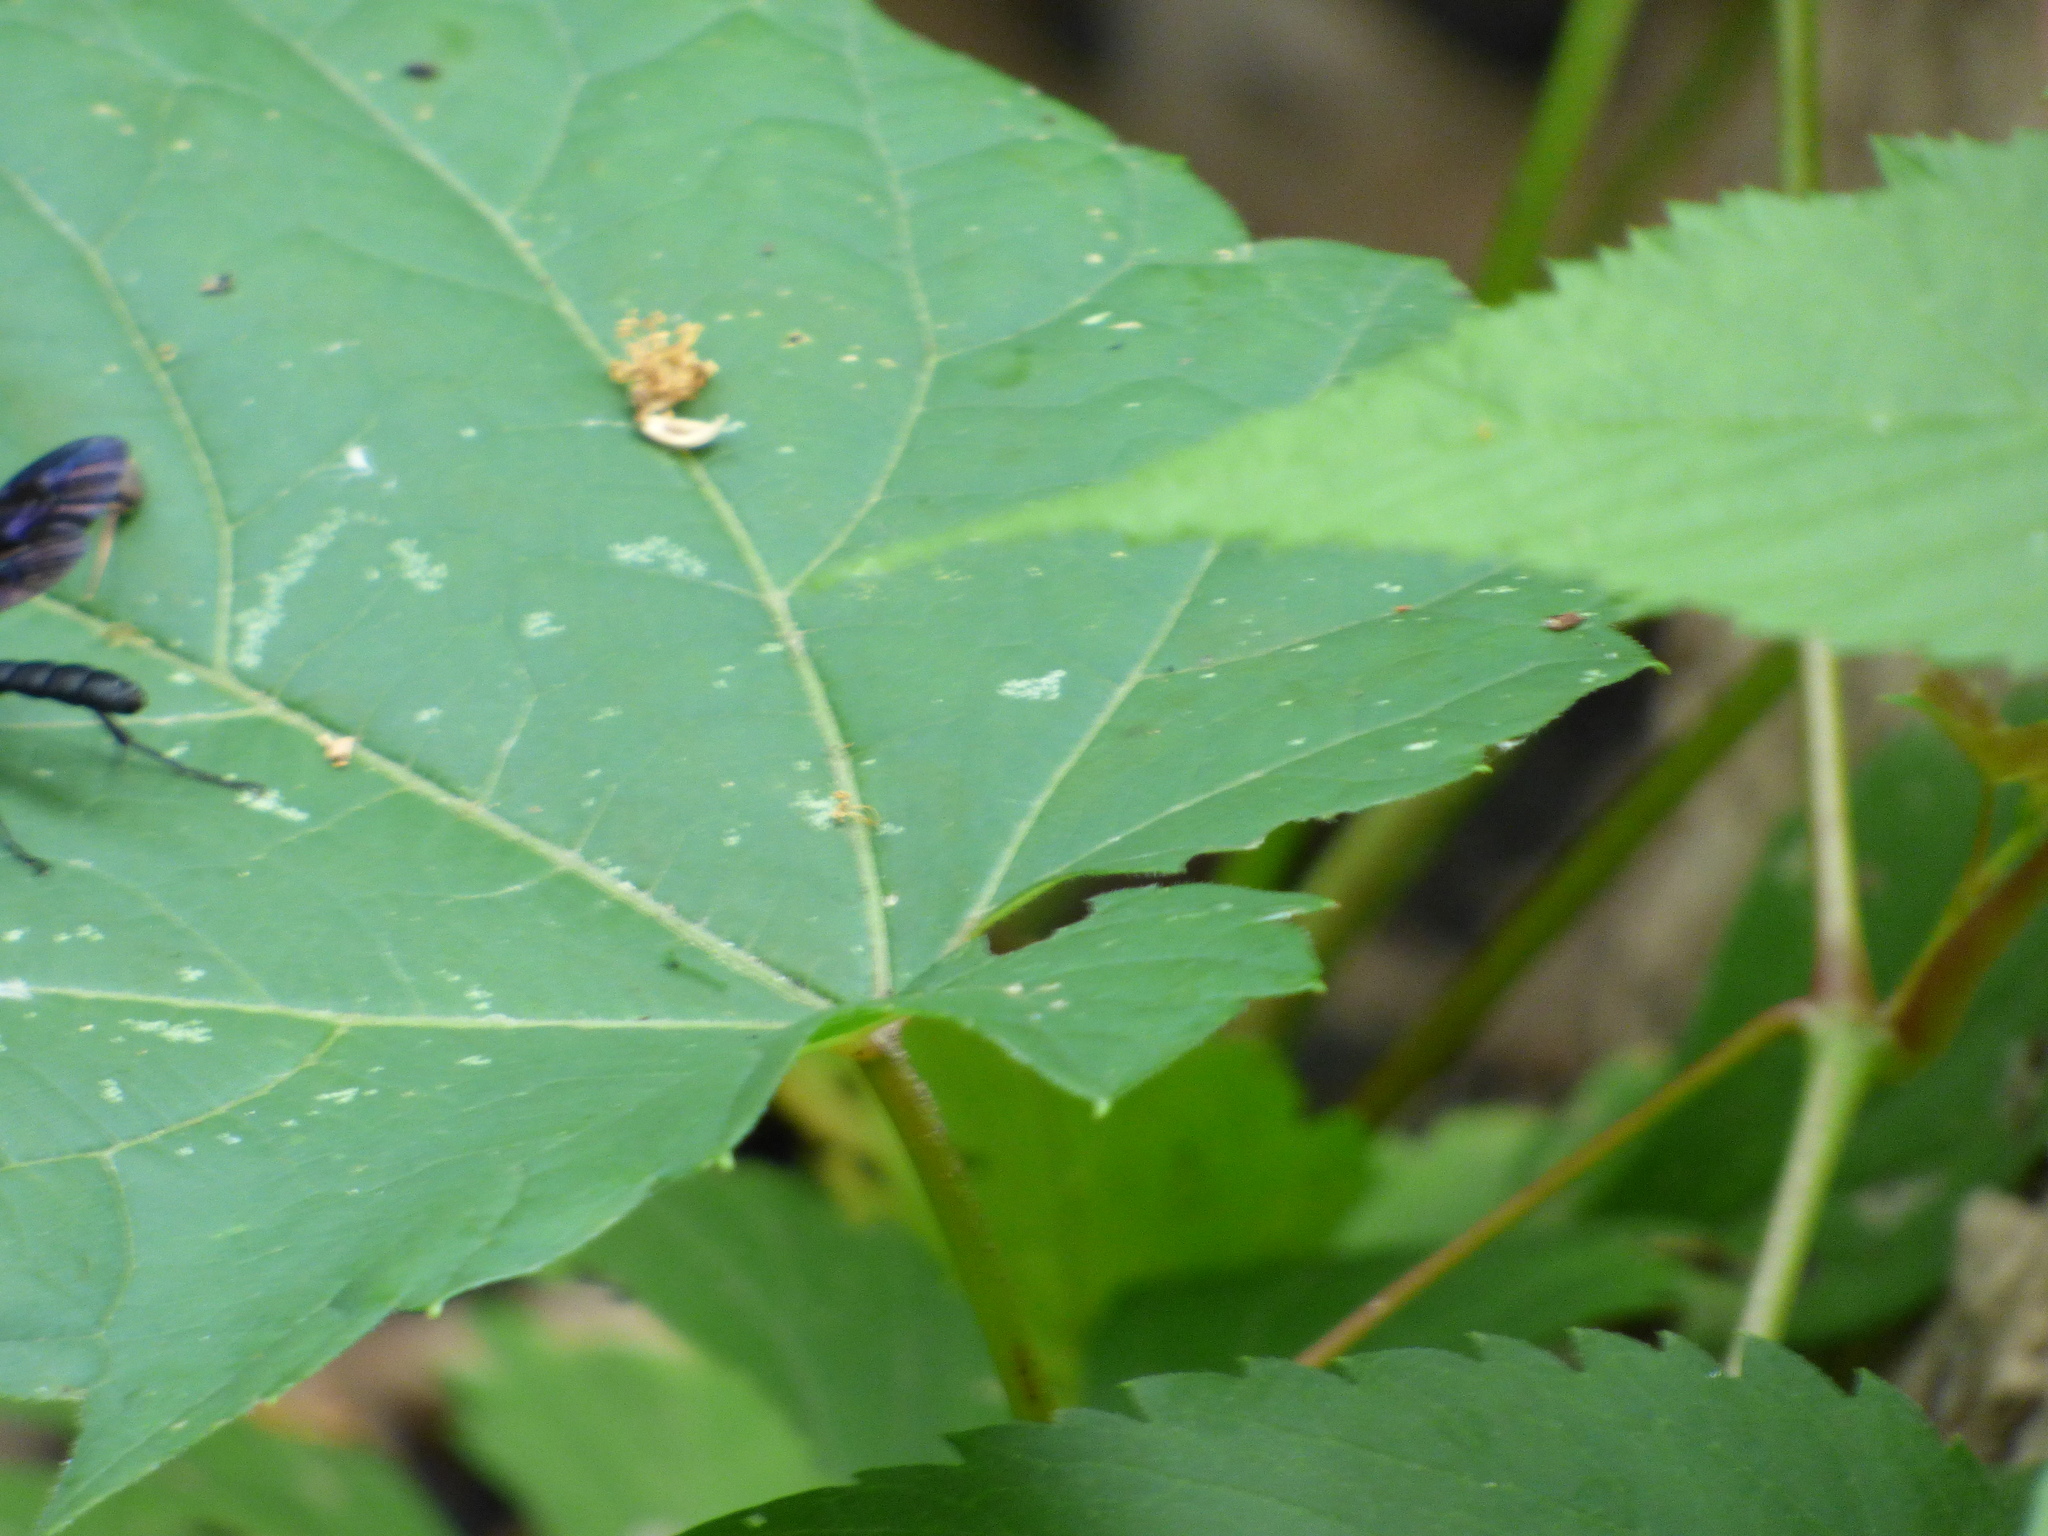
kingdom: Animalia
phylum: Arthropoda
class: Insecta
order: Hymenoptera
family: Ichneumonidae
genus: Gnamptopelta
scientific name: Gnamptopelta obsidianator
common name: Bent-shielded besieger wasp
